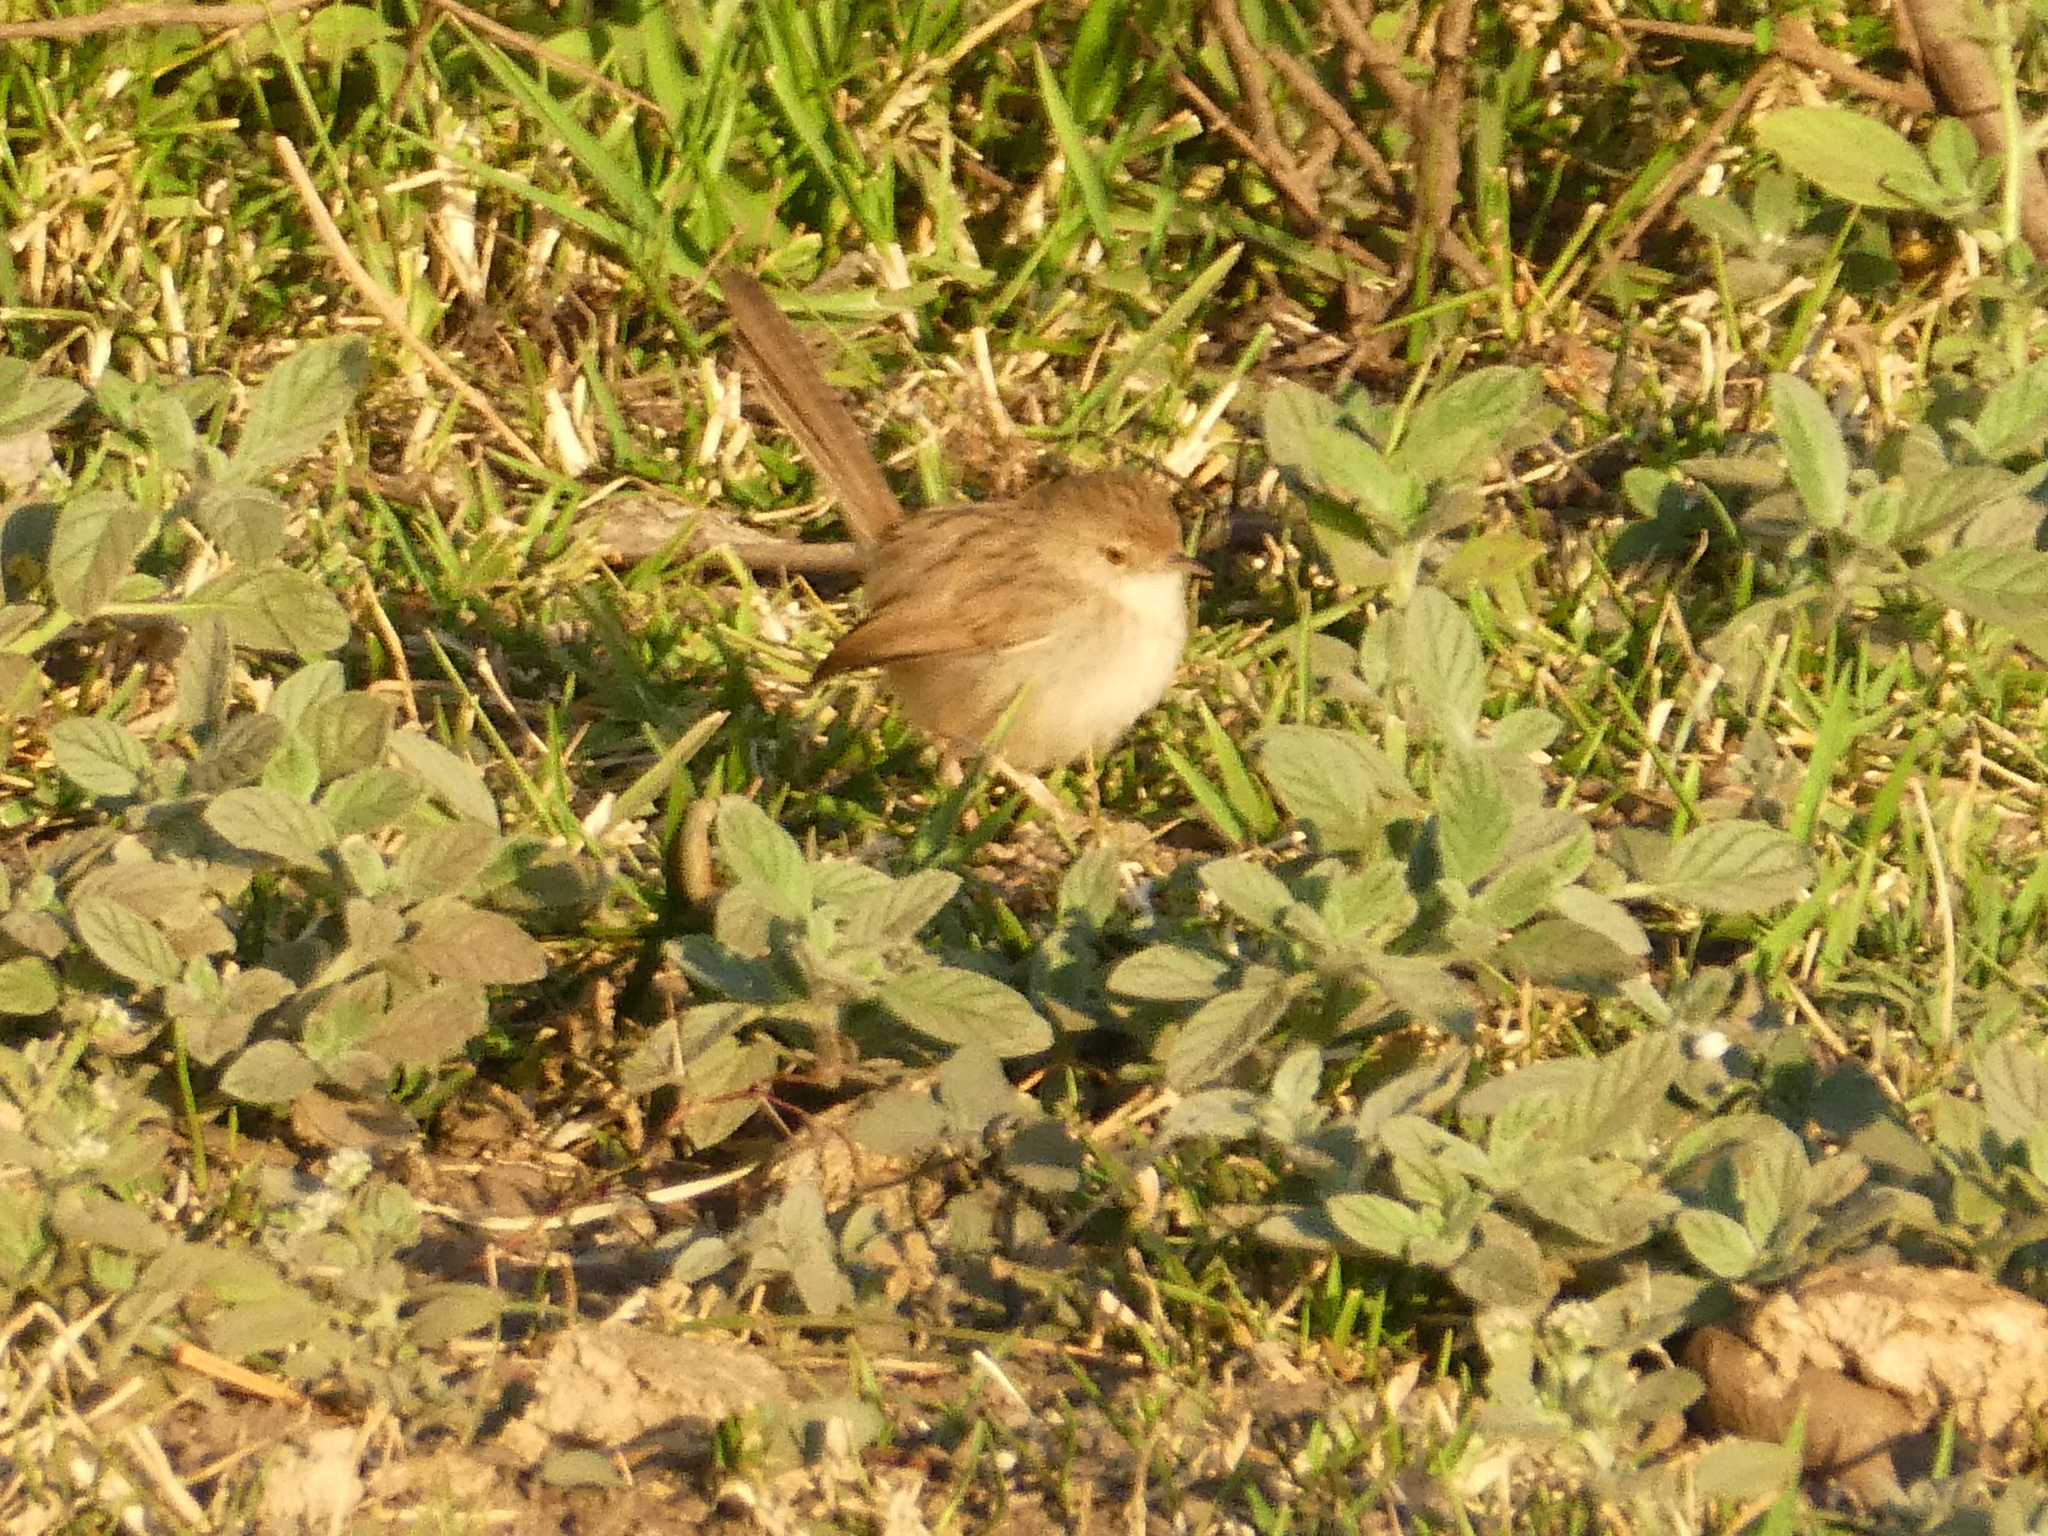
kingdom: Animalia
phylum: Chordata
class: Aves
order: Passeriformes
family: Cisticolidae
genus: Prinia
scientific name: Prinia gracilis
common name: Graceful prinia
